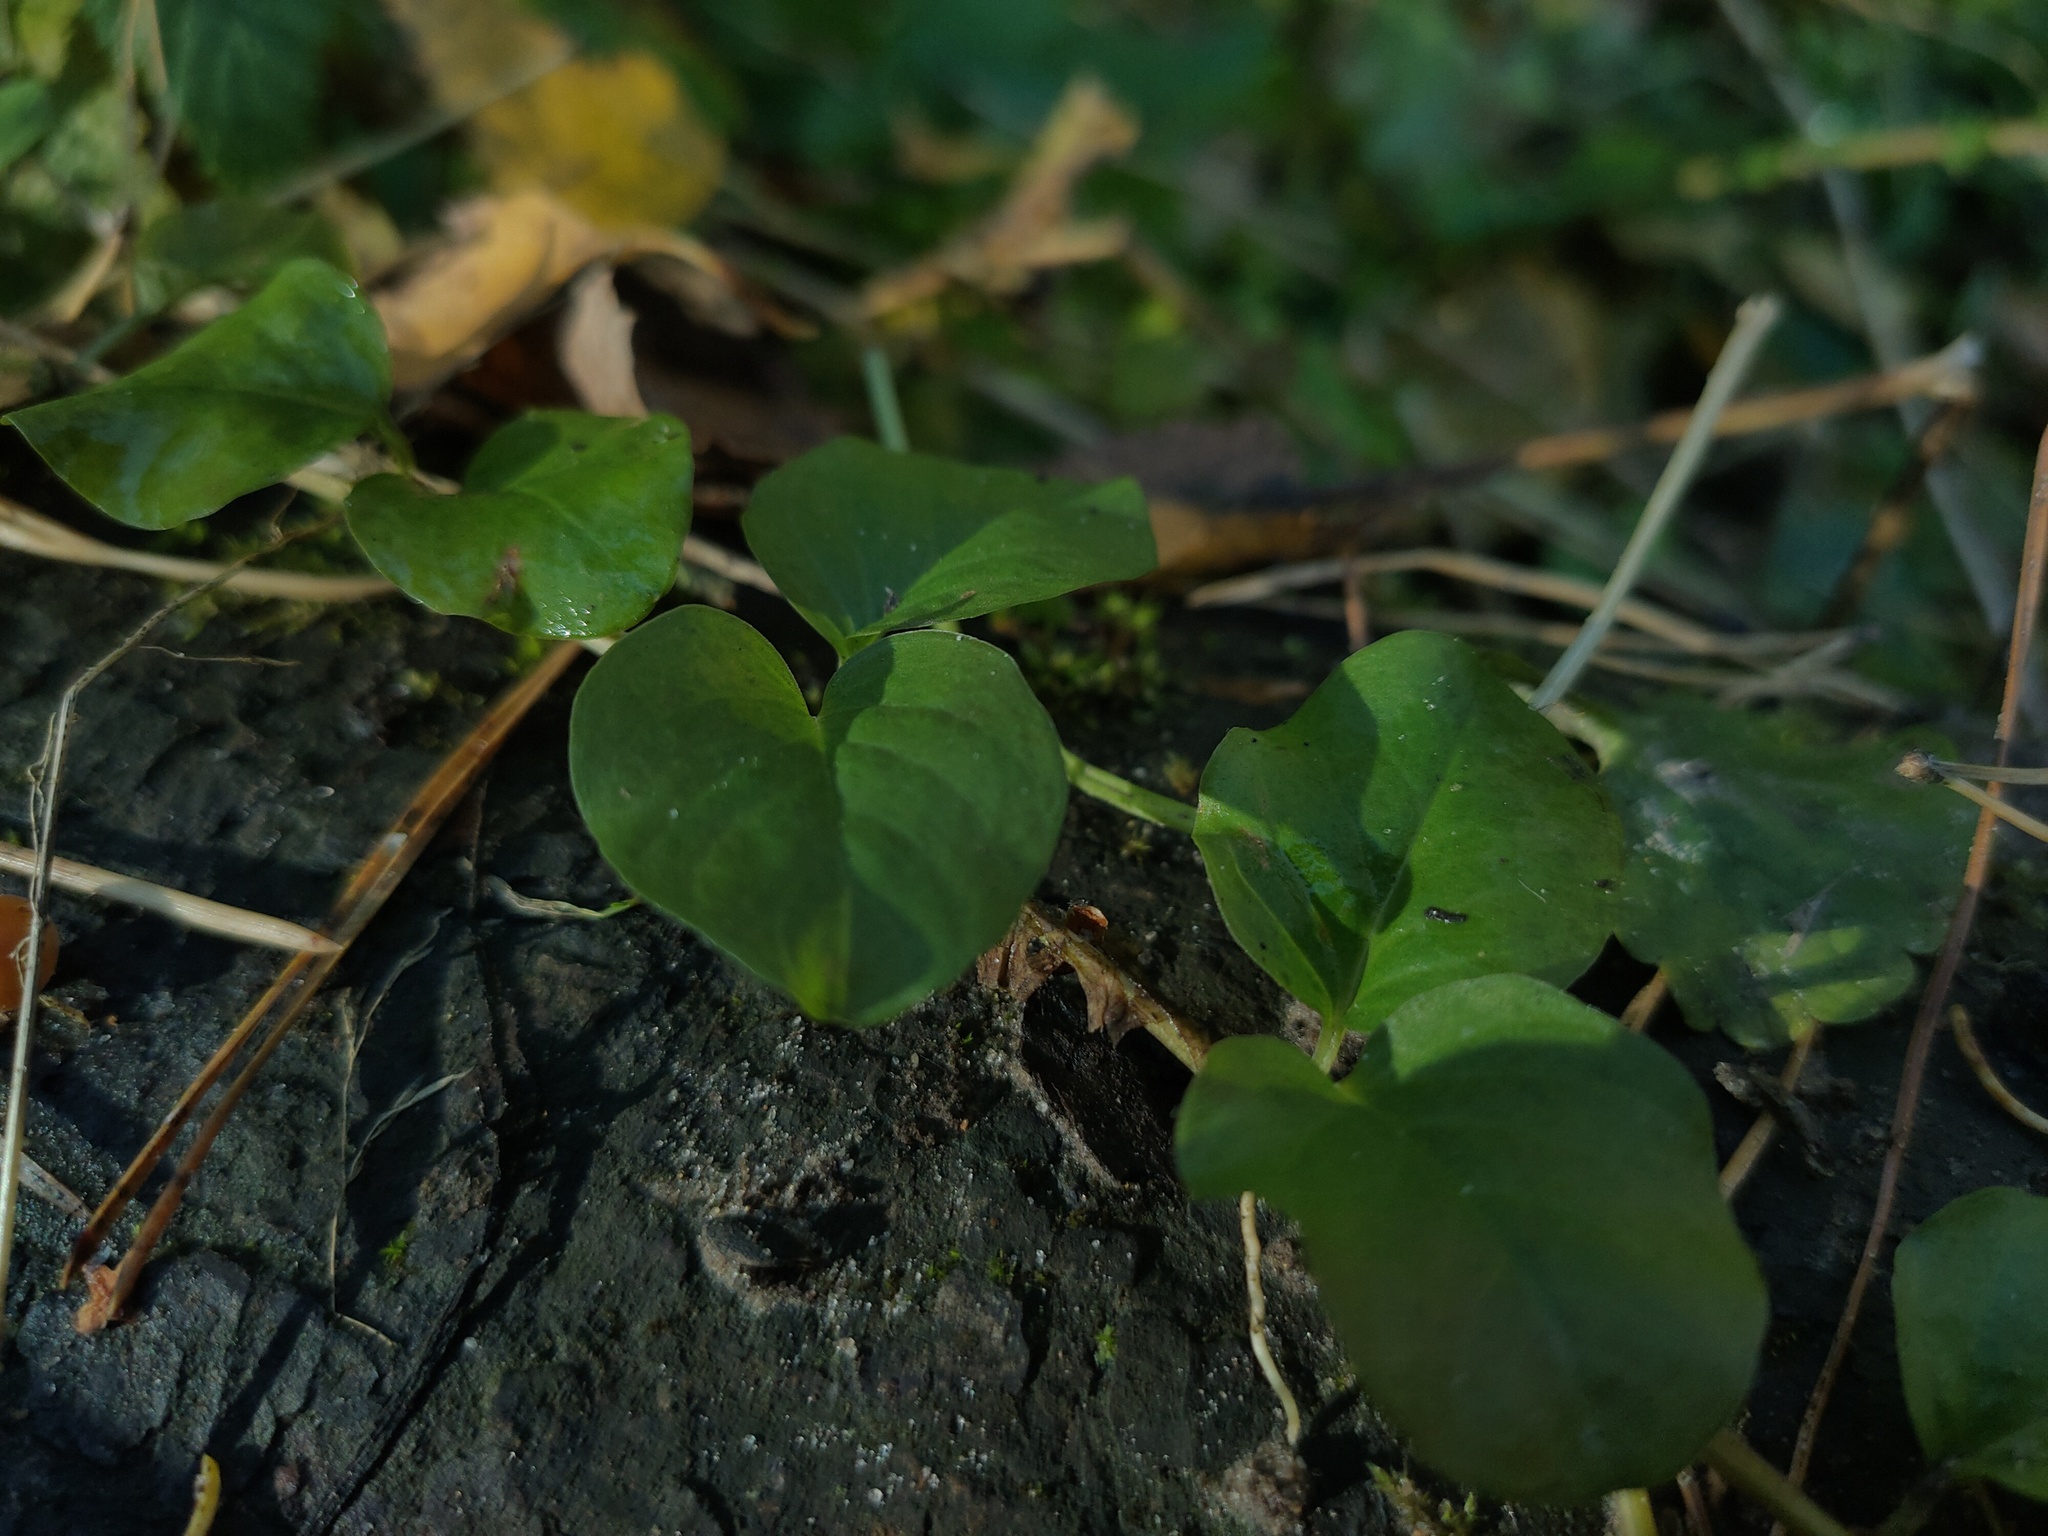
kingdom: Plantae
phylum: Tracheophyta
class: Magnoliopsida
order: Ericales
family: Primulaceae
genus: Lysimachia
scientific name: Lysimachia nummularia
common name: Moneywort
